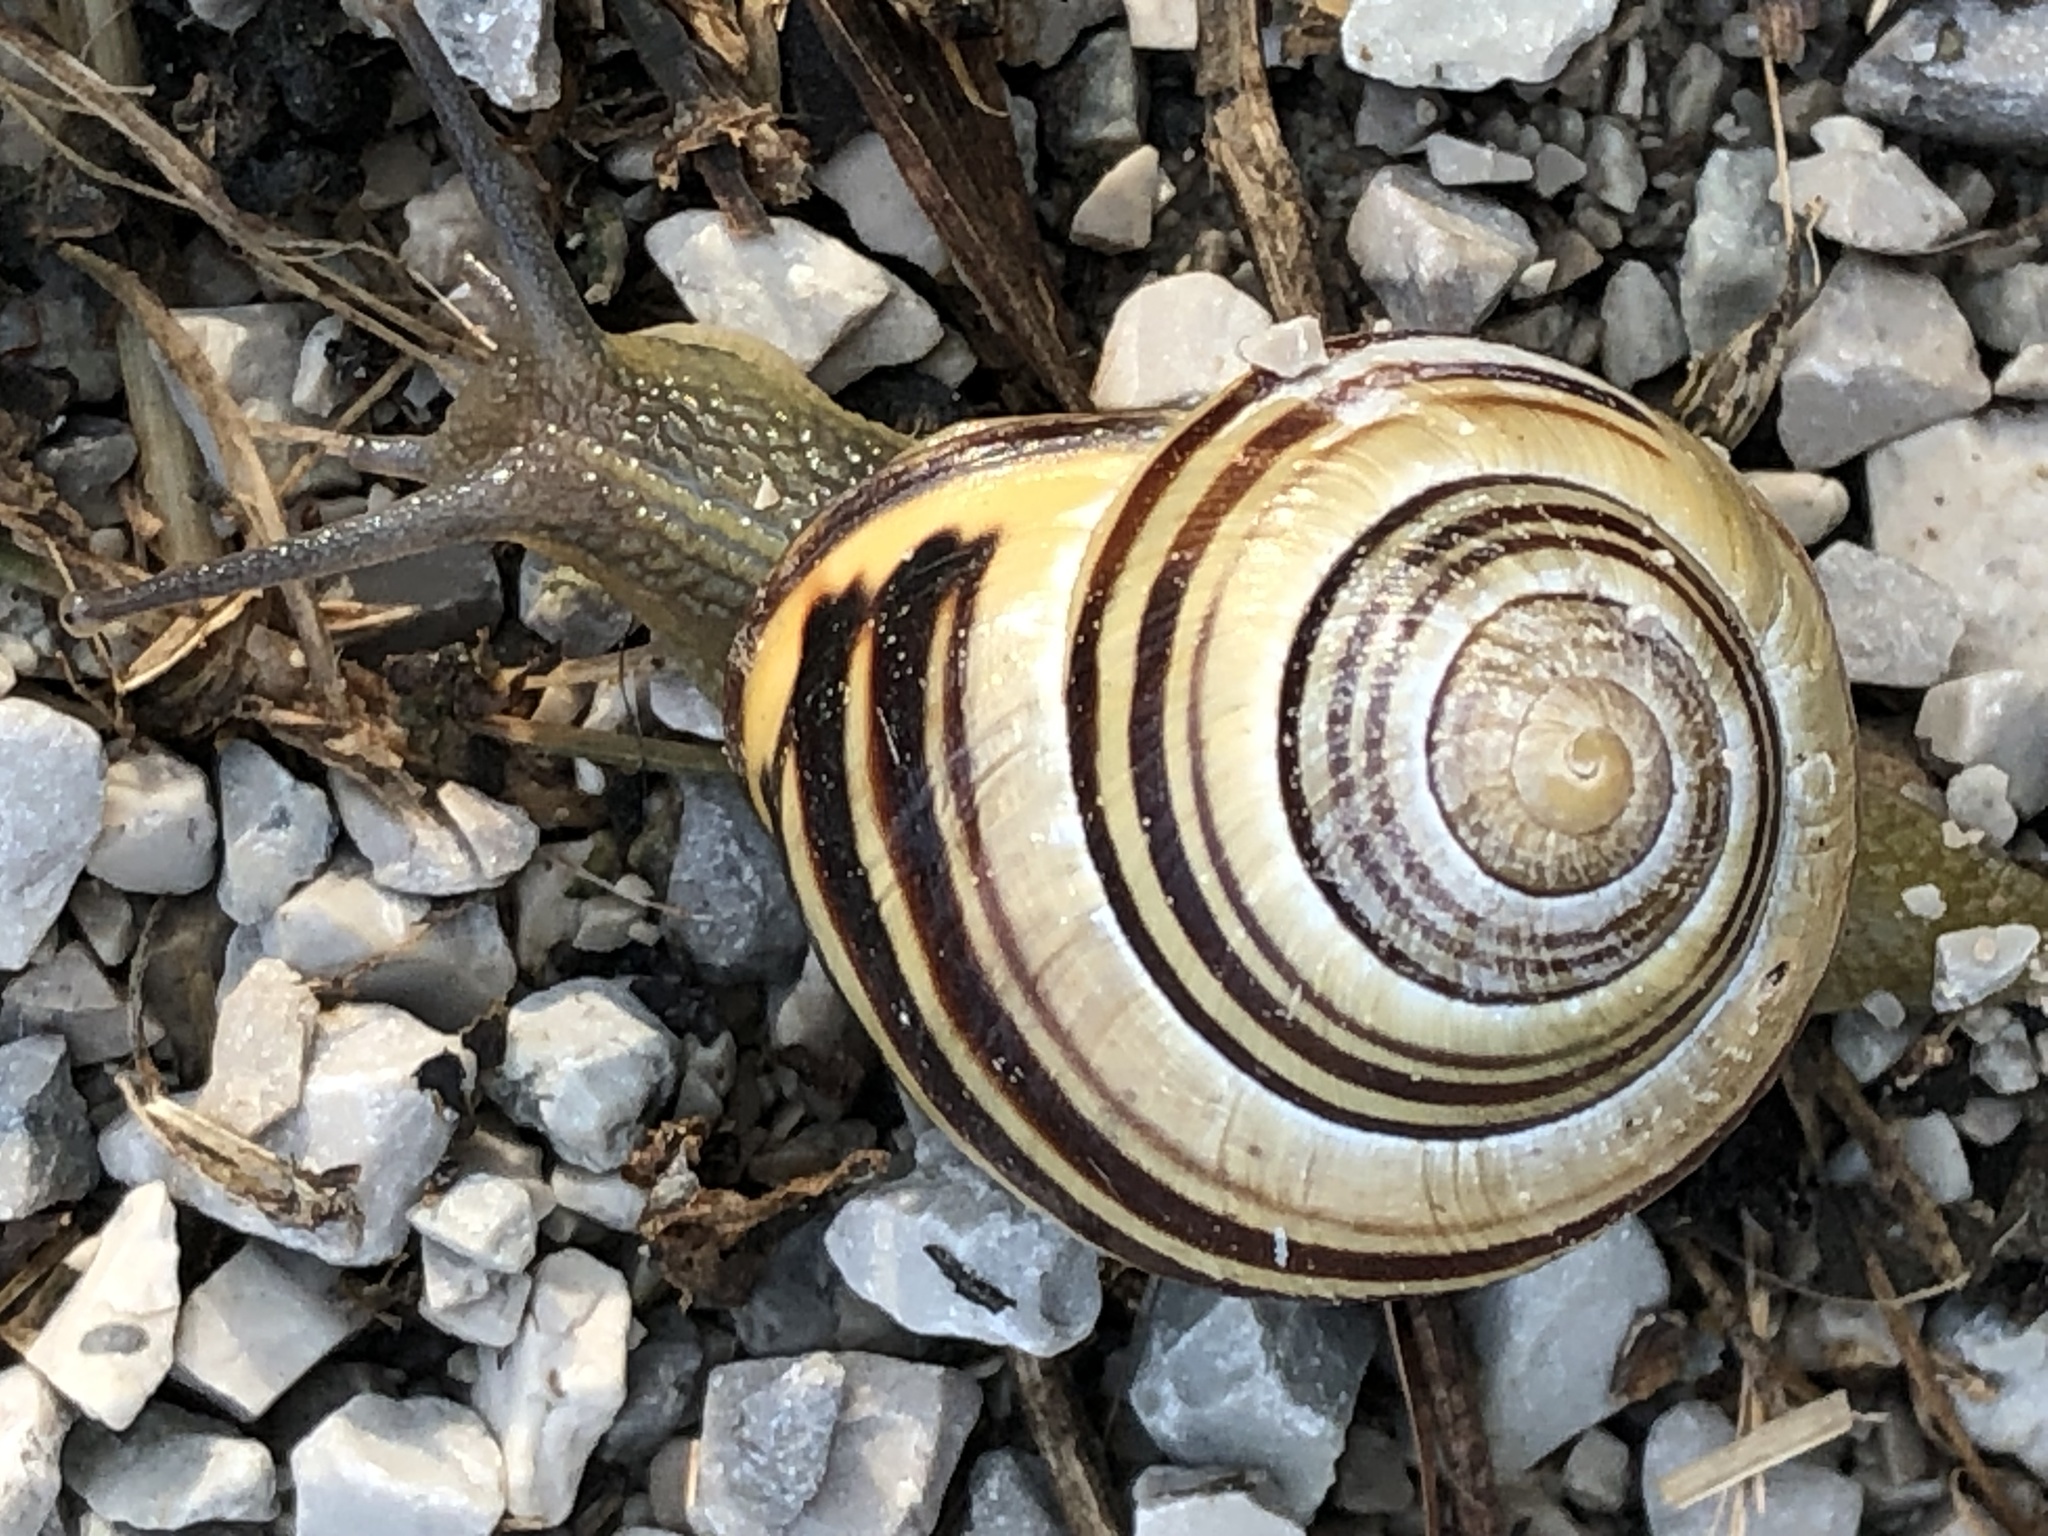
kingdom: Animalia
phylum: Mollusca
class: Gastropoda
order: Stylommatophora
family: Helicidae
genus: Cepaea
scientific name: Cepaea nemoralis
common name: Grovesnail
